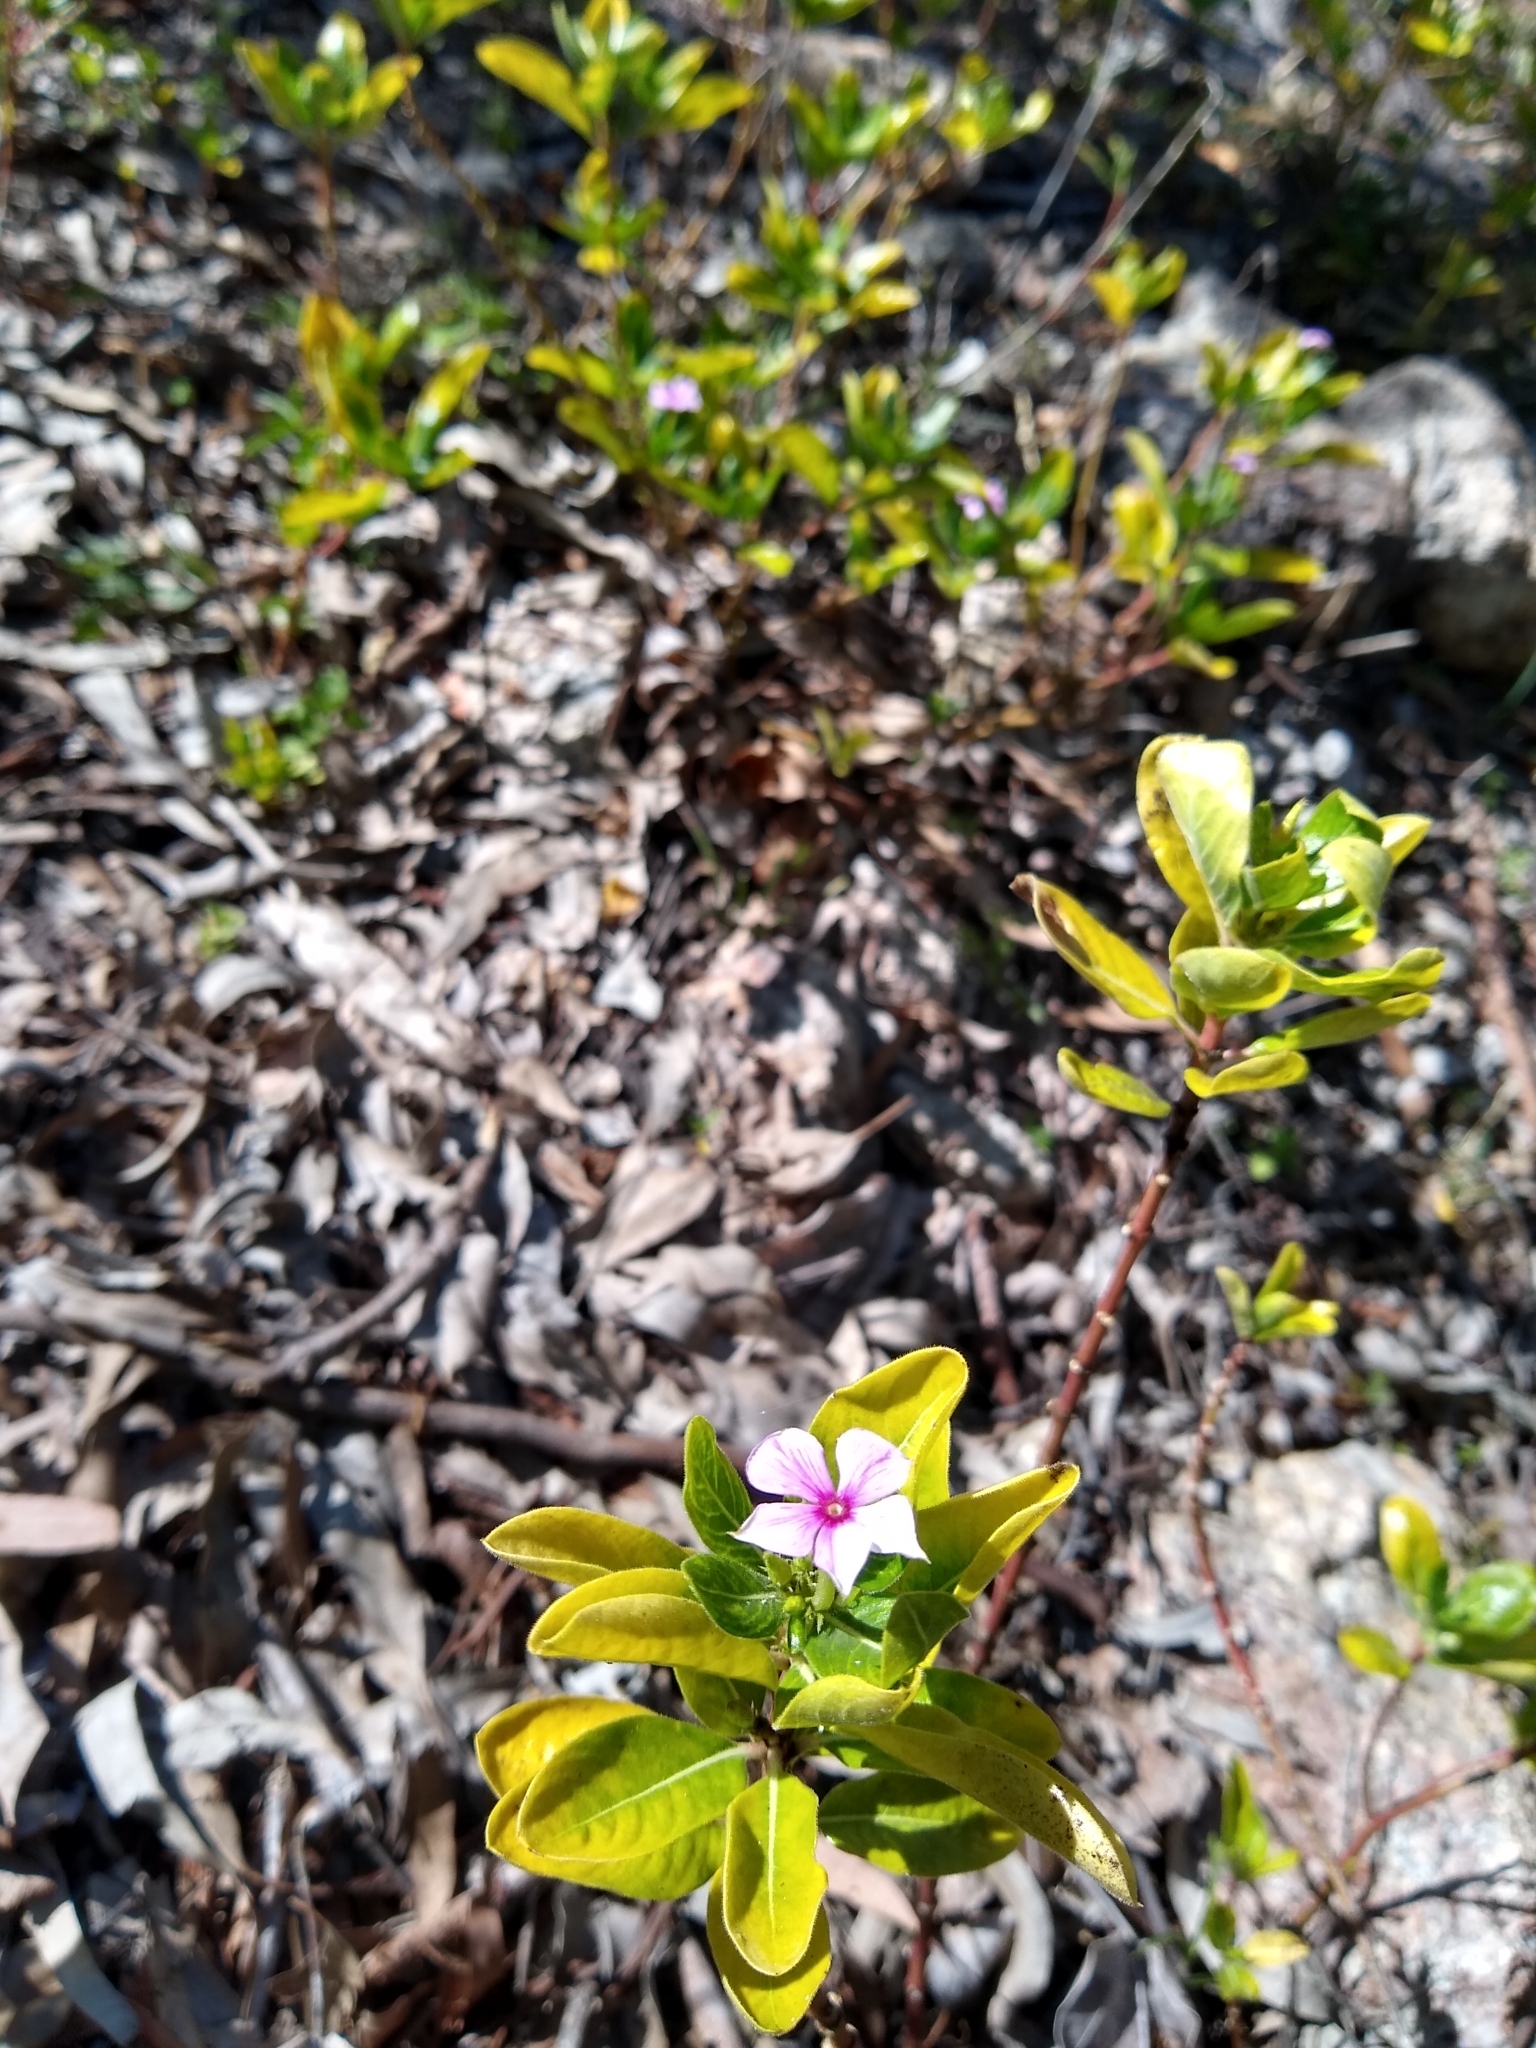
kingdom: Plantae
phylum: Tracheophyta
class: Magnoliopsida
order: Gentianales
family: Apocynaceae
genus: Catharanthus
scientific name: Catharanthus roseus
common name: Madagascar periwinkle
